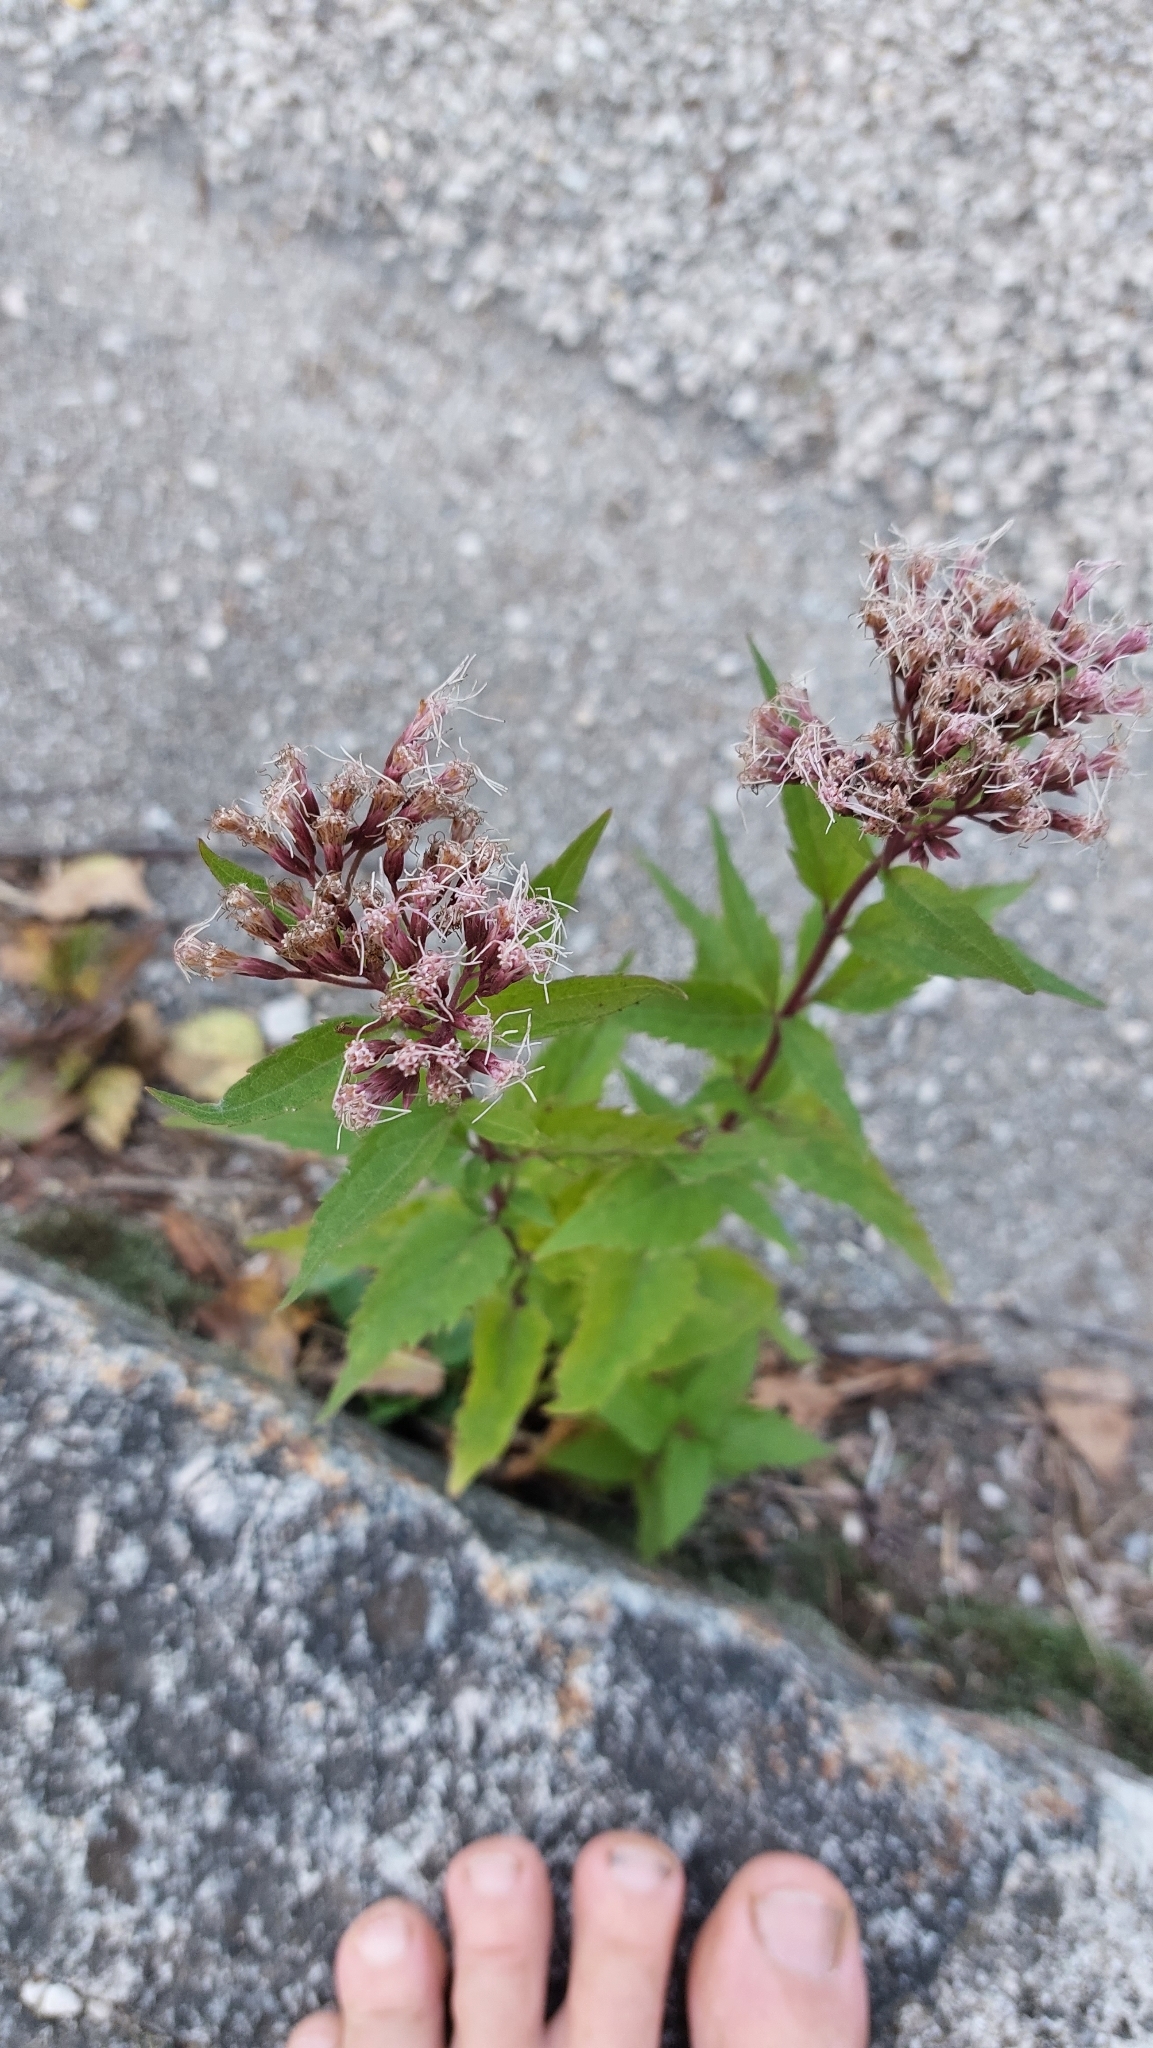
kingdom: Plantae
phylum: Tracheophyta
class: Magnoliopsida
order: Asterales
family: Asteraceae
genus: Eupatorium
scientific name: Eupatorium cannabinum
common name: Hemp-agrimony
